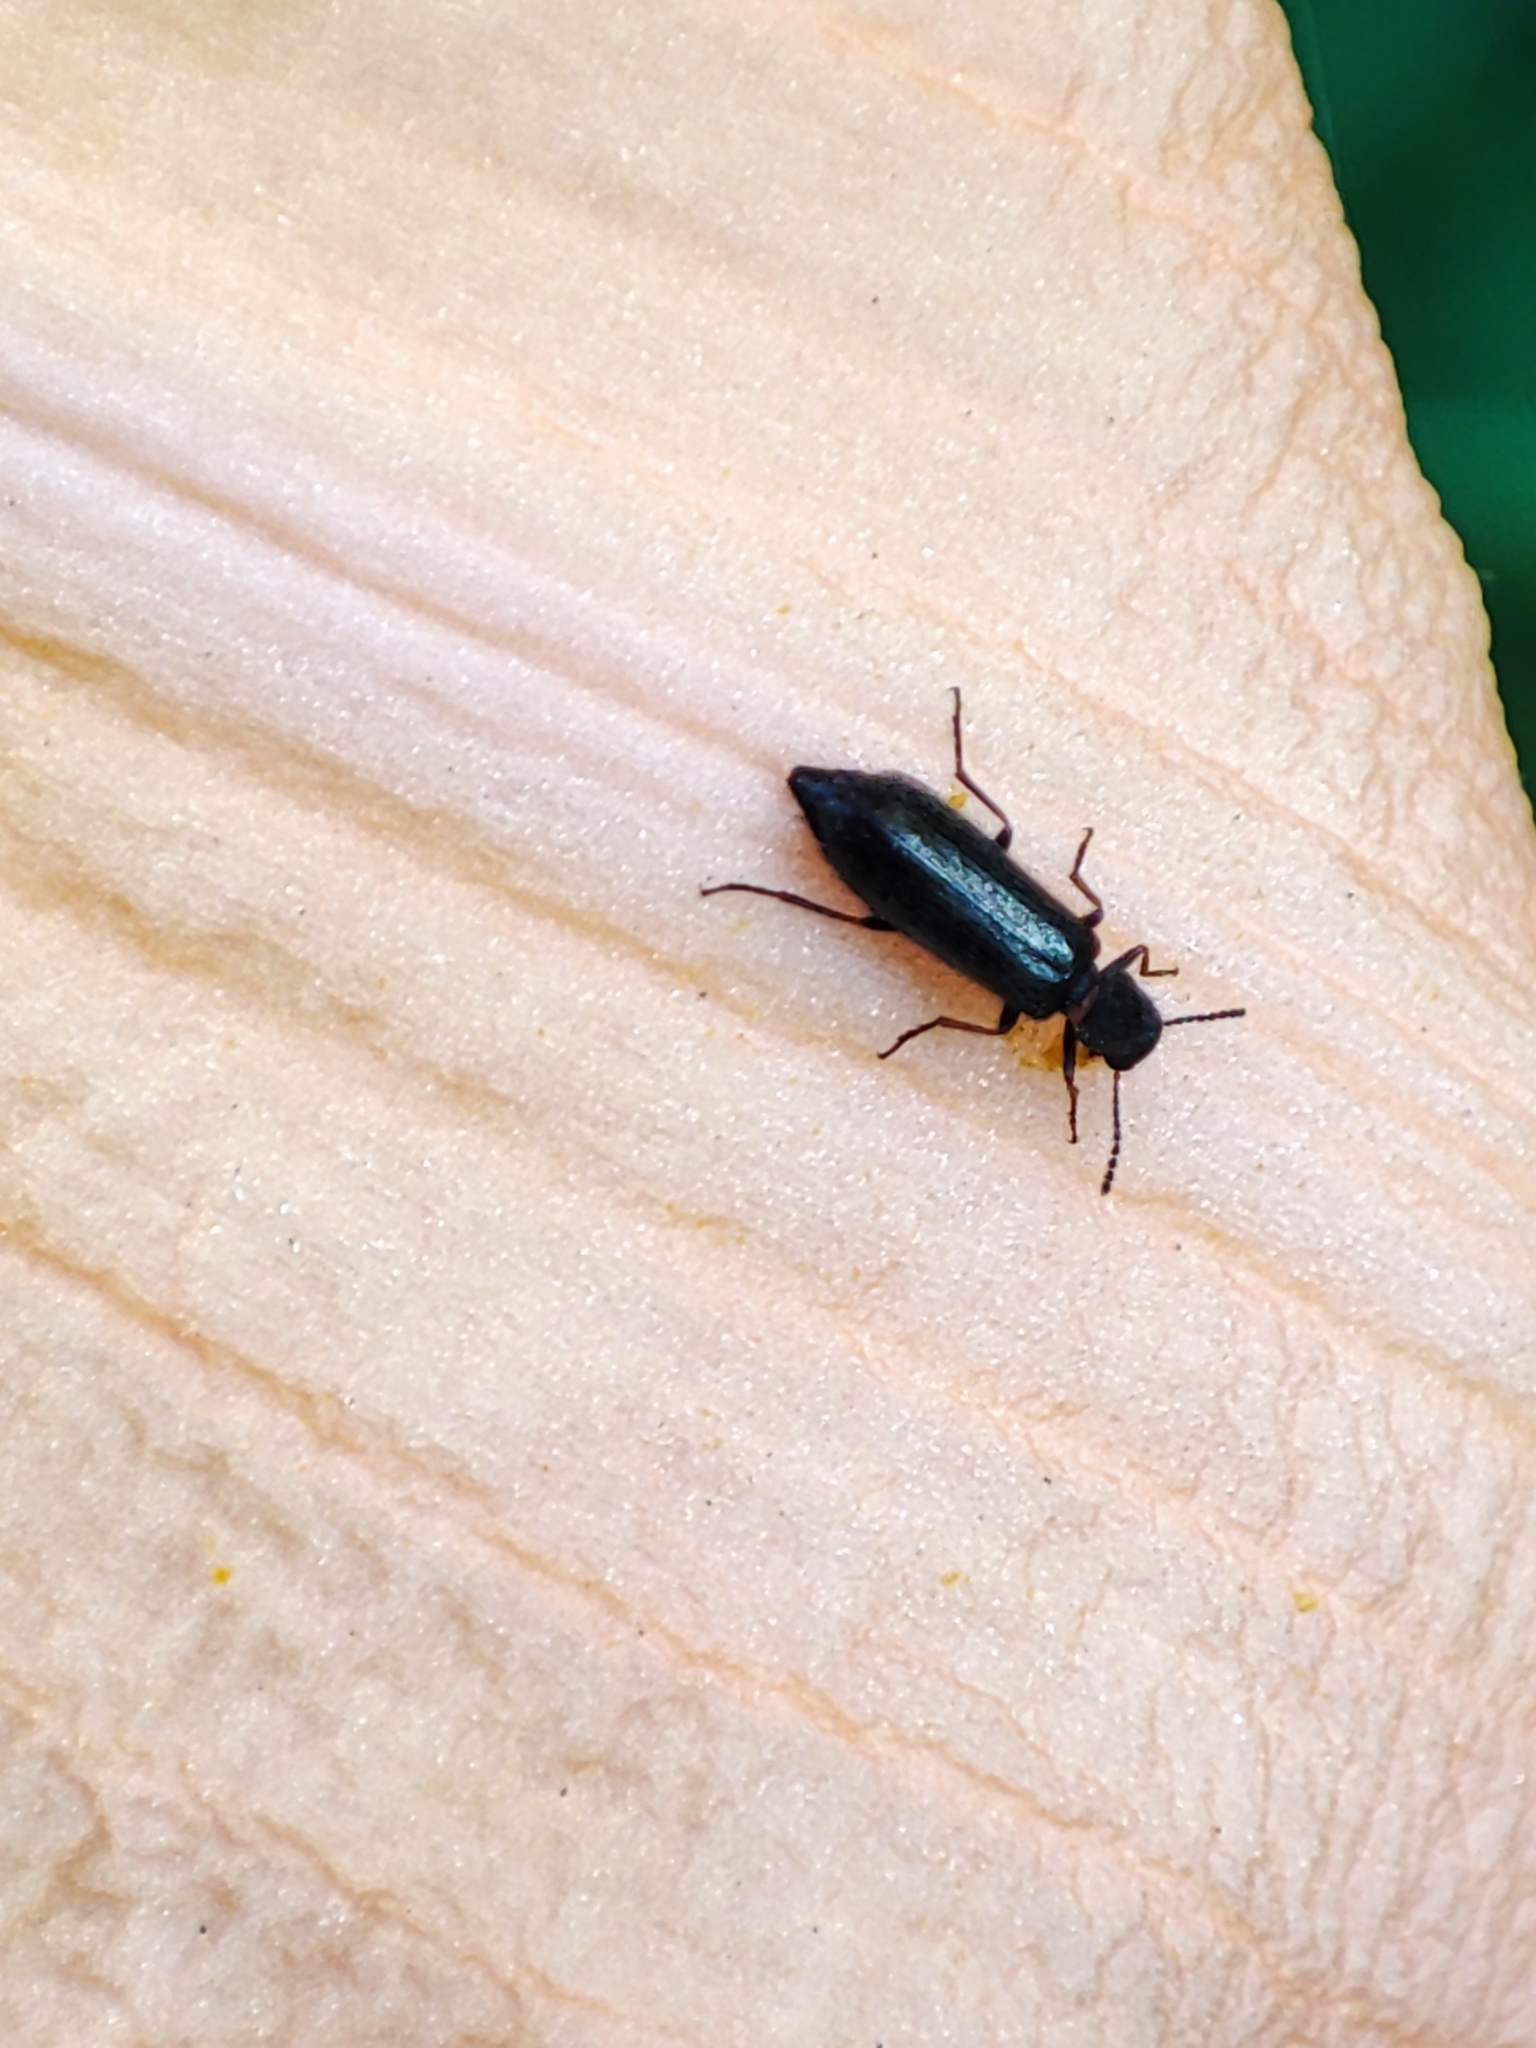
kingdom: Animalia
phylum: Arthropoda
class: Insecta
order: Coleoptera
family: Malachiidae
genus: Apalochrus
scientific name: Apalochrus femoralis
